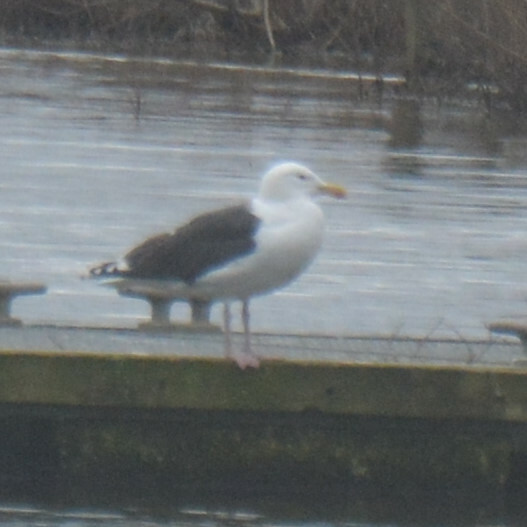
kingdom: Animalia
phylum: Chordata
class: Aves
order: Charadriiformes
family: Laridae
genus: Larus
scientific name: Larus marinus
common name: Great black-backed gull
